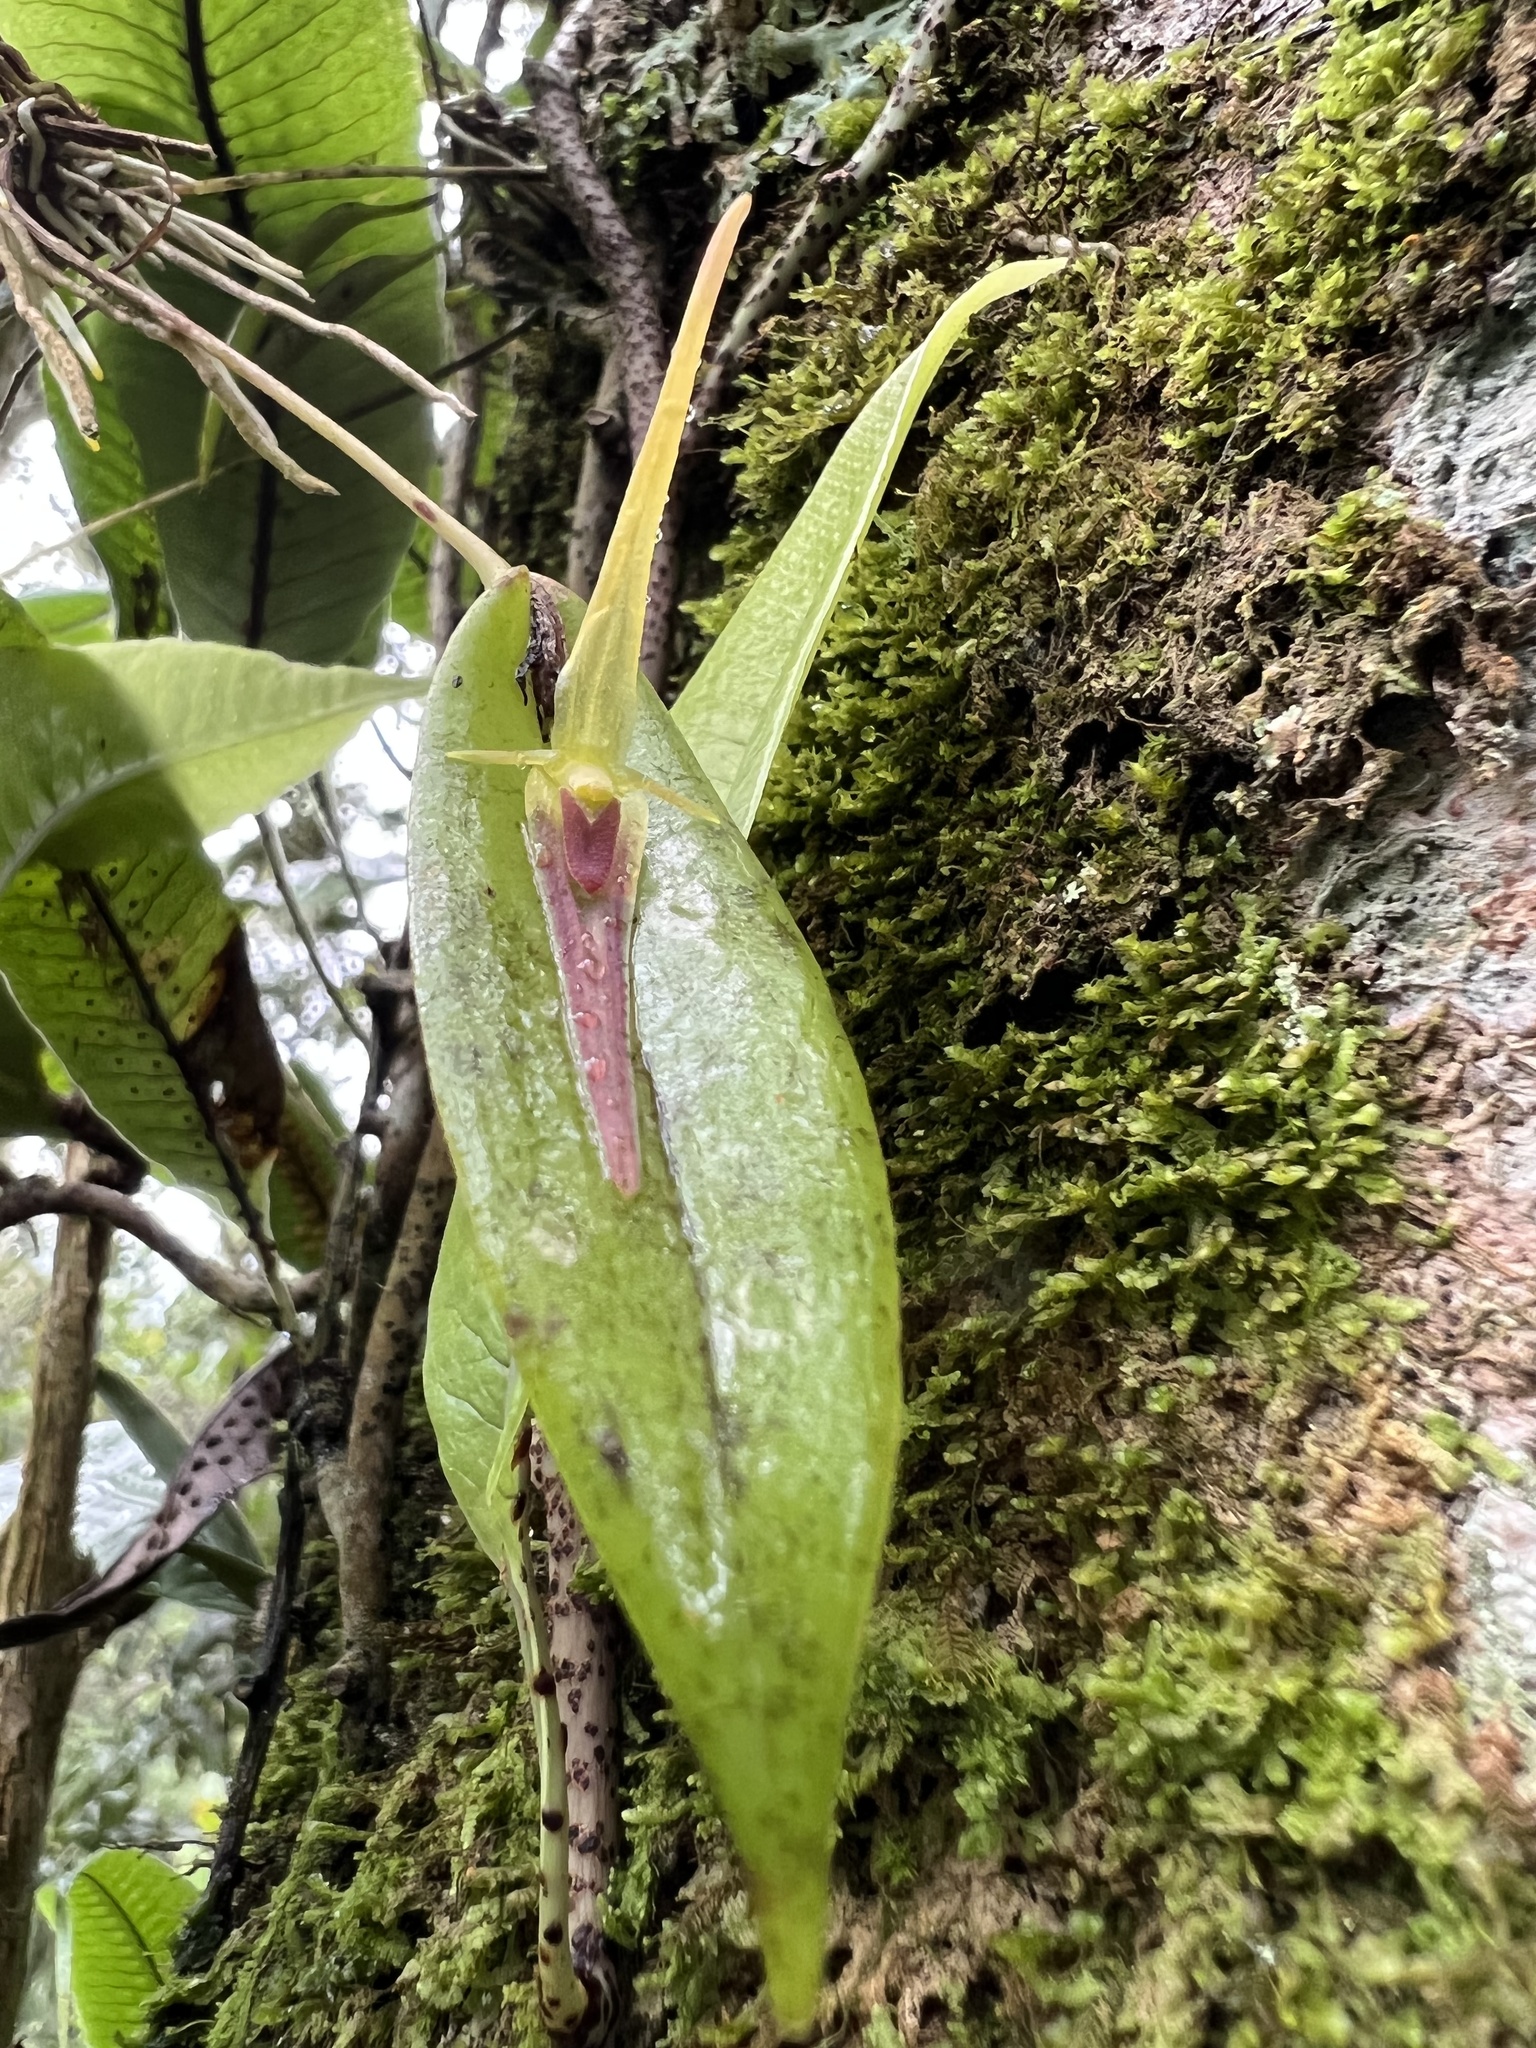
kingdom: Plantae
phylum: Tracheophyta
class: Liliopsida
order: Asparagales
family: Orchidaceae
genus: Pleurothallis
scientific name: Pleurothallis microcardia
